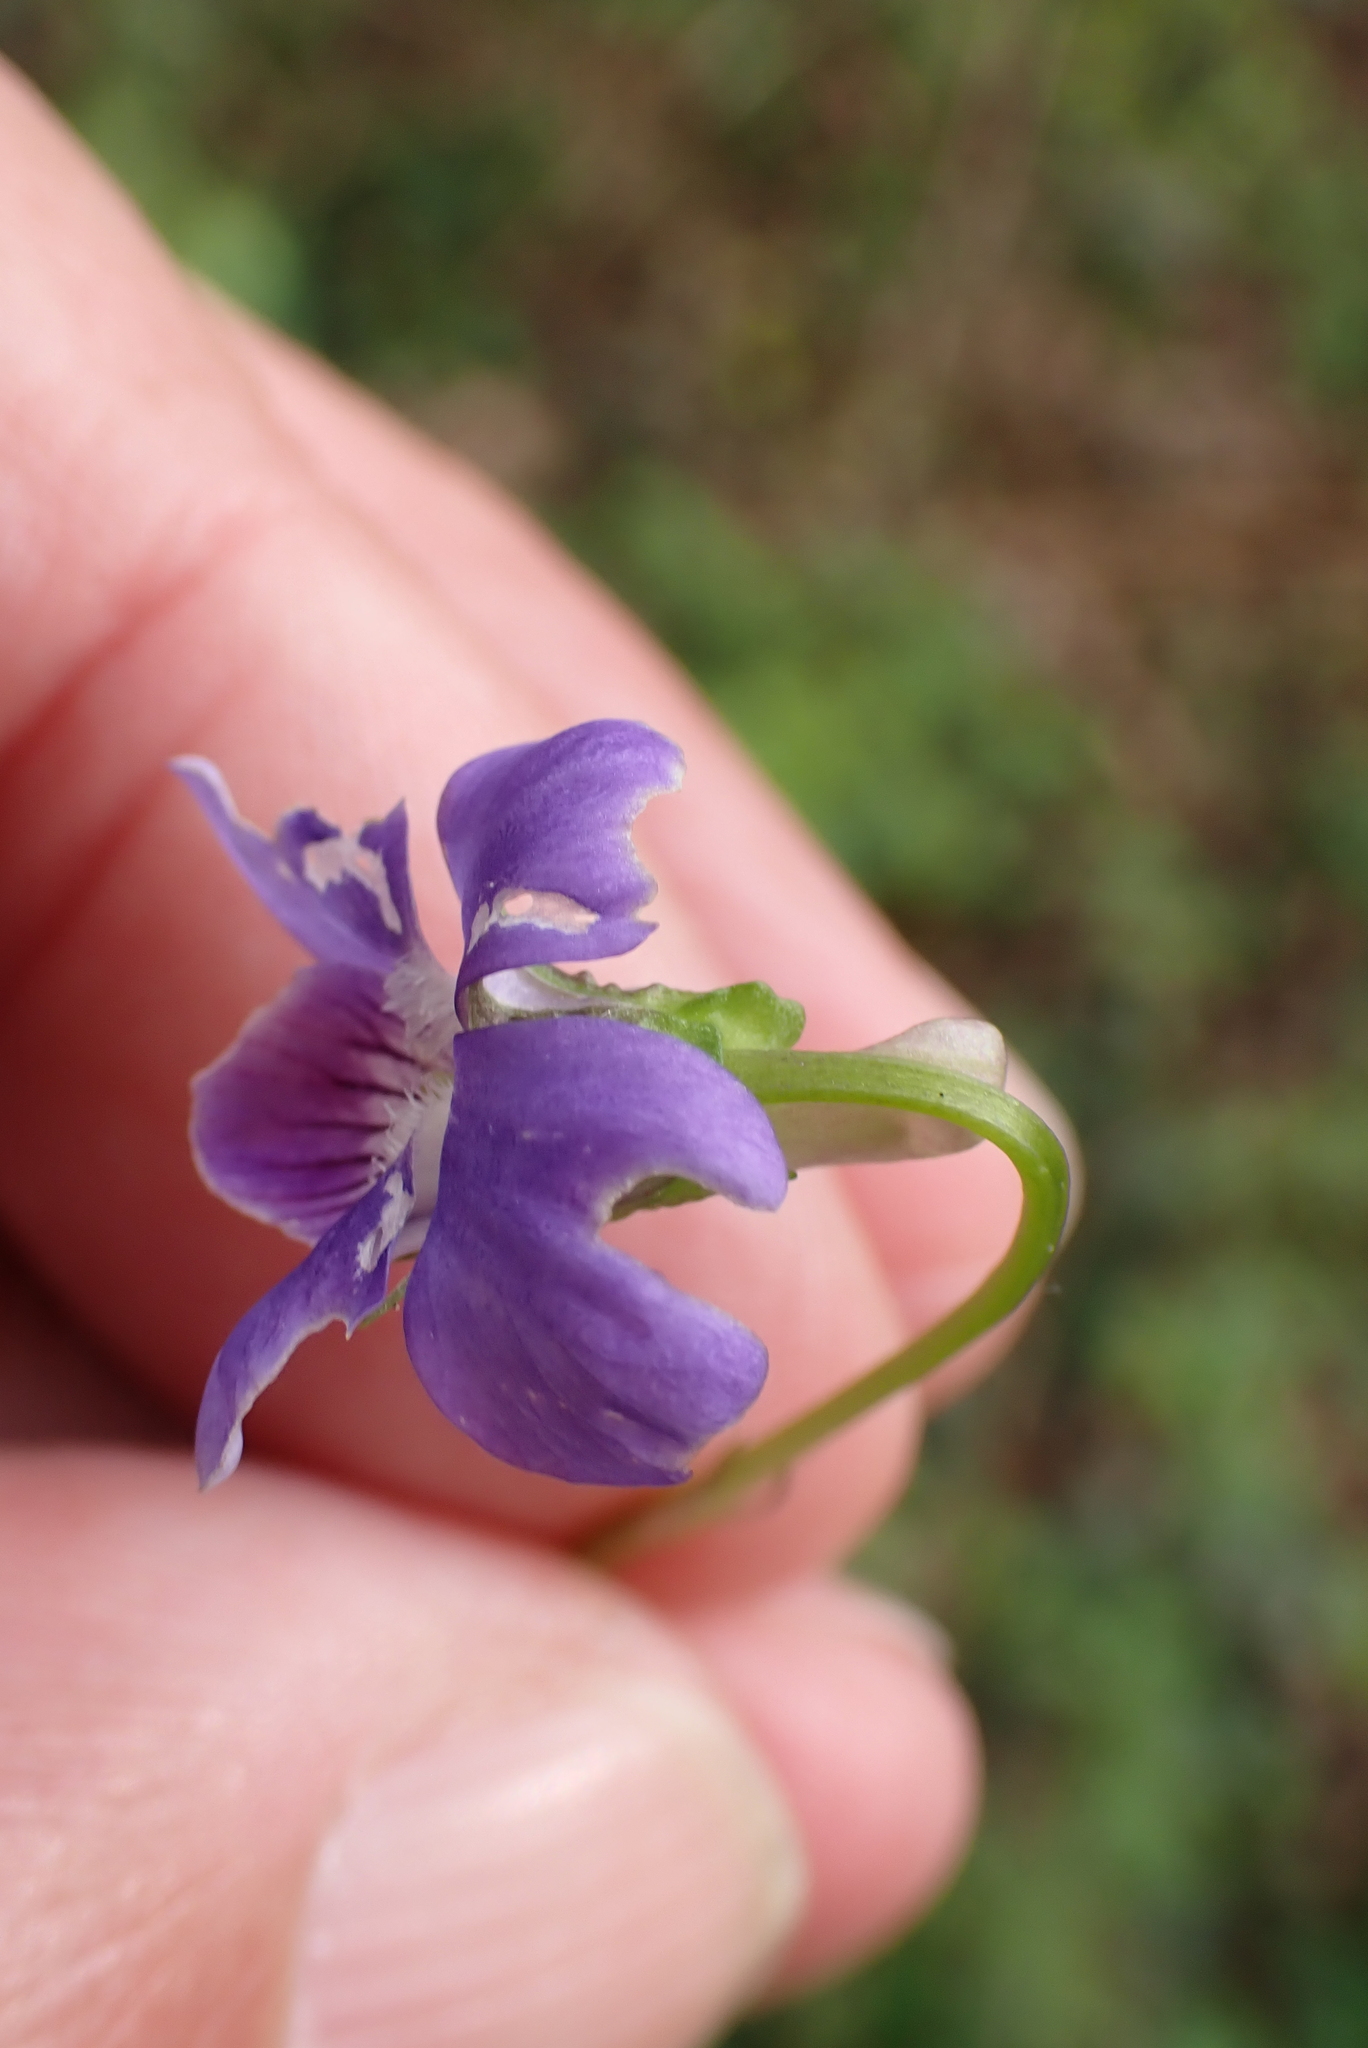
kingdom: Plantae
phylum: Tracheophyta
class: Magnoliopsida
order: Malpighiales
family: Violaceae
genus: Viola
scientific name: Viola riviniana
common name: Common dog-violet
